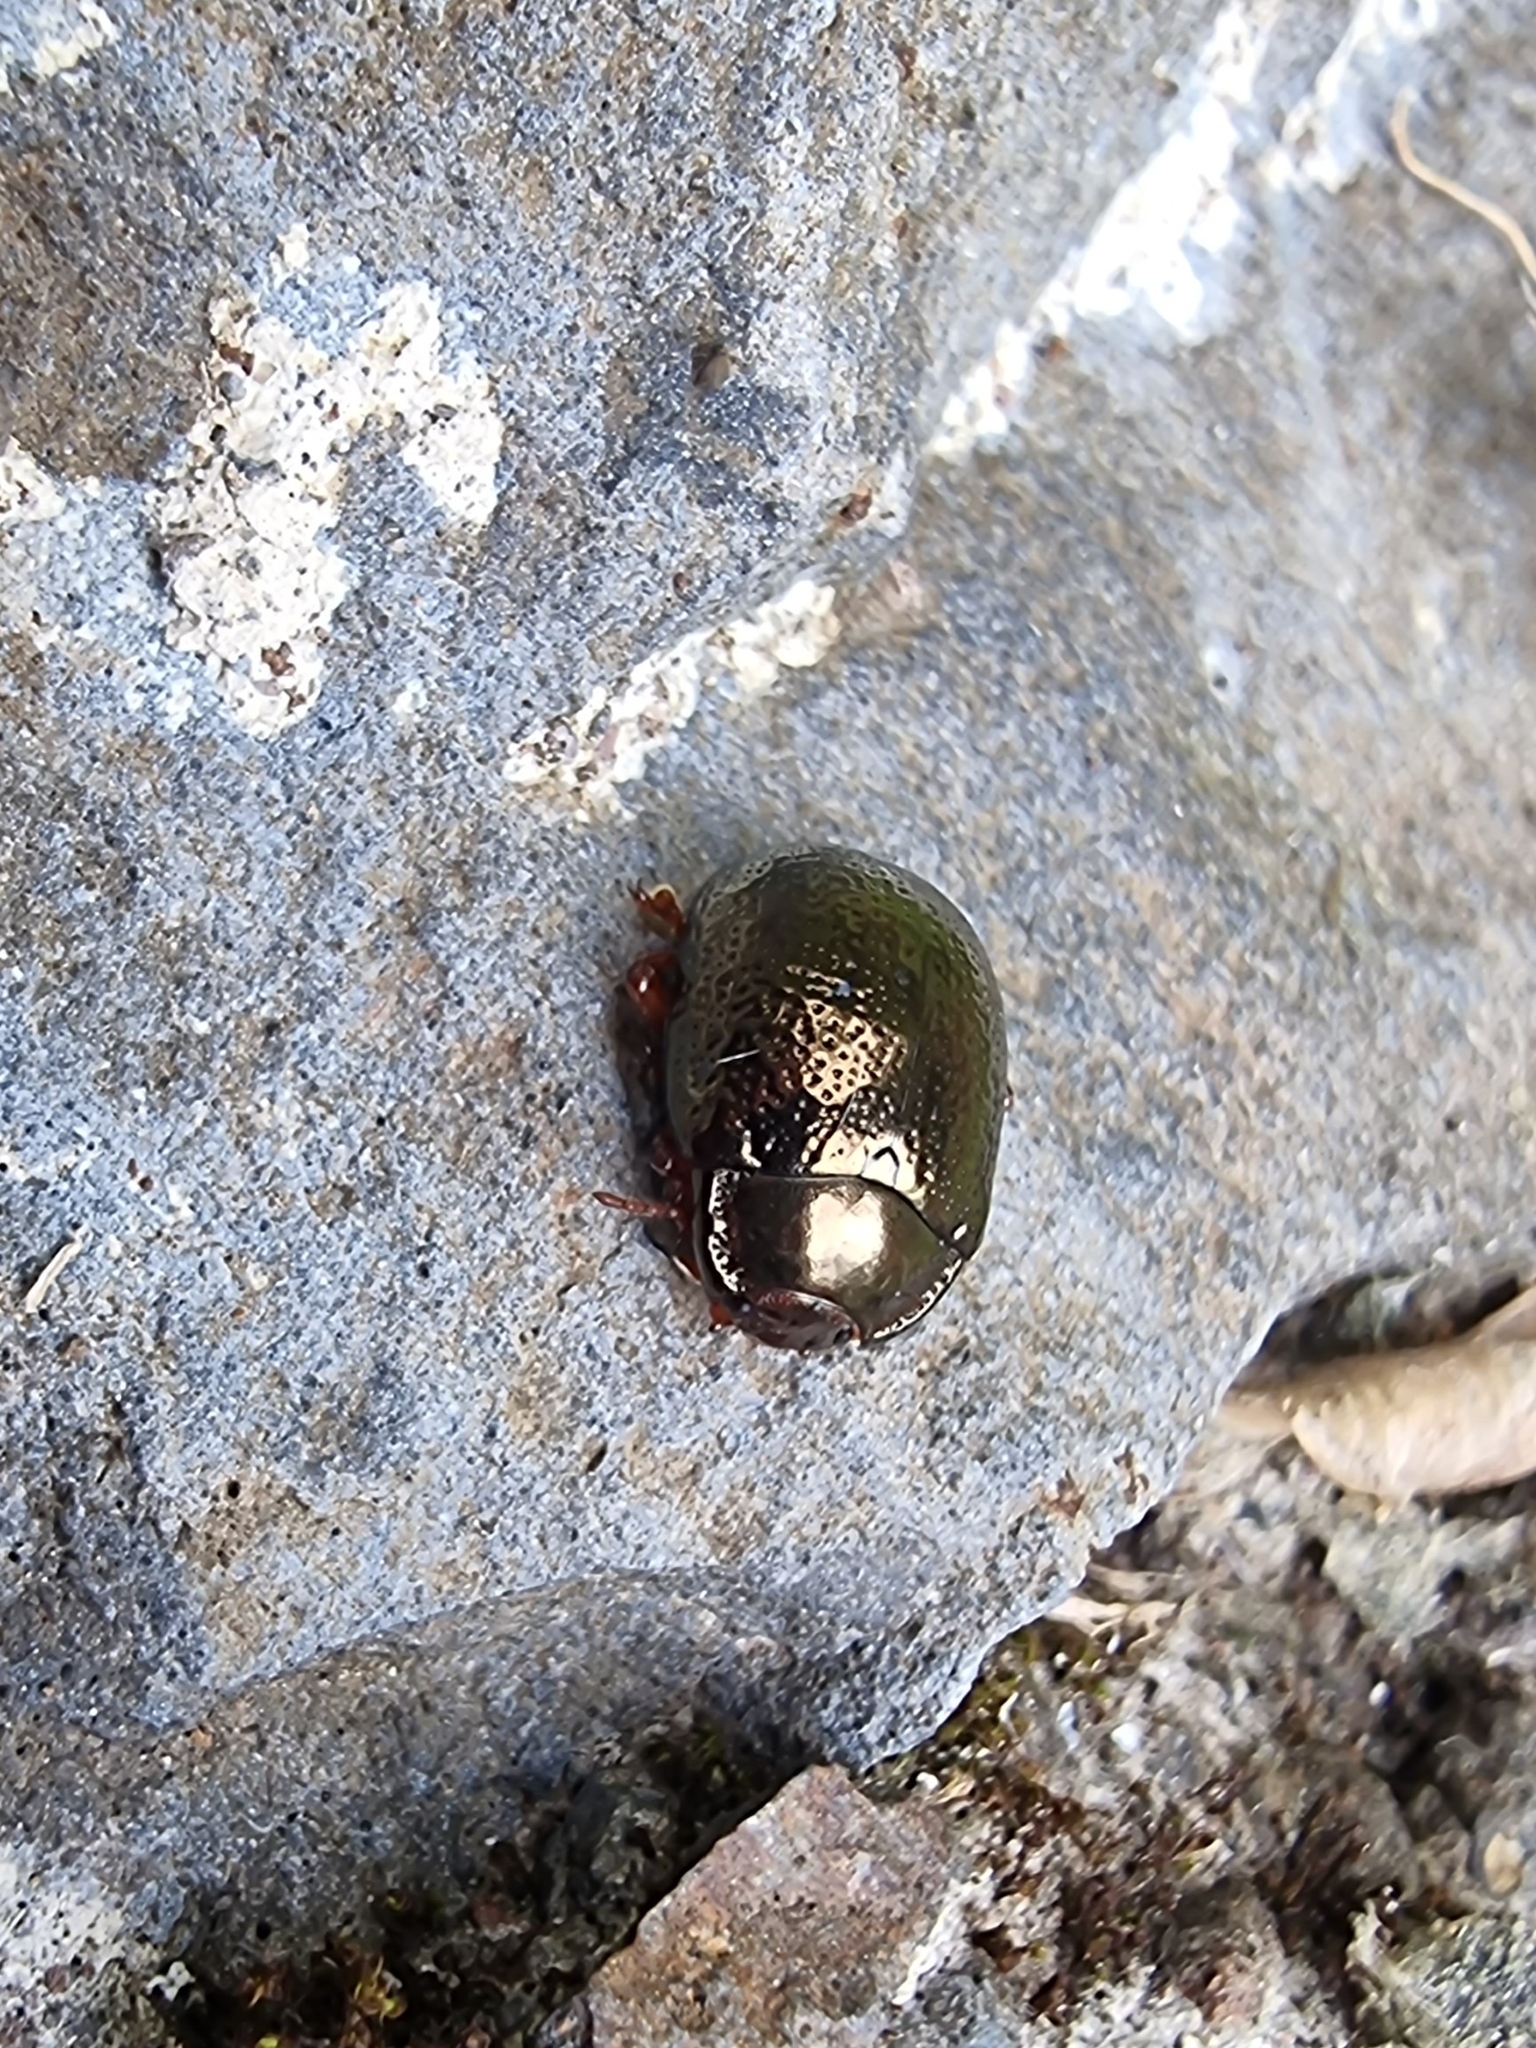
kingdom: Animalia
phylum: Arthropoda
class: Insecta
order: Coleoptera
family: Chrysomelidae
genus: Chrysolina
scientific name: Chrysolina bankii
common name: Leaf beetle
